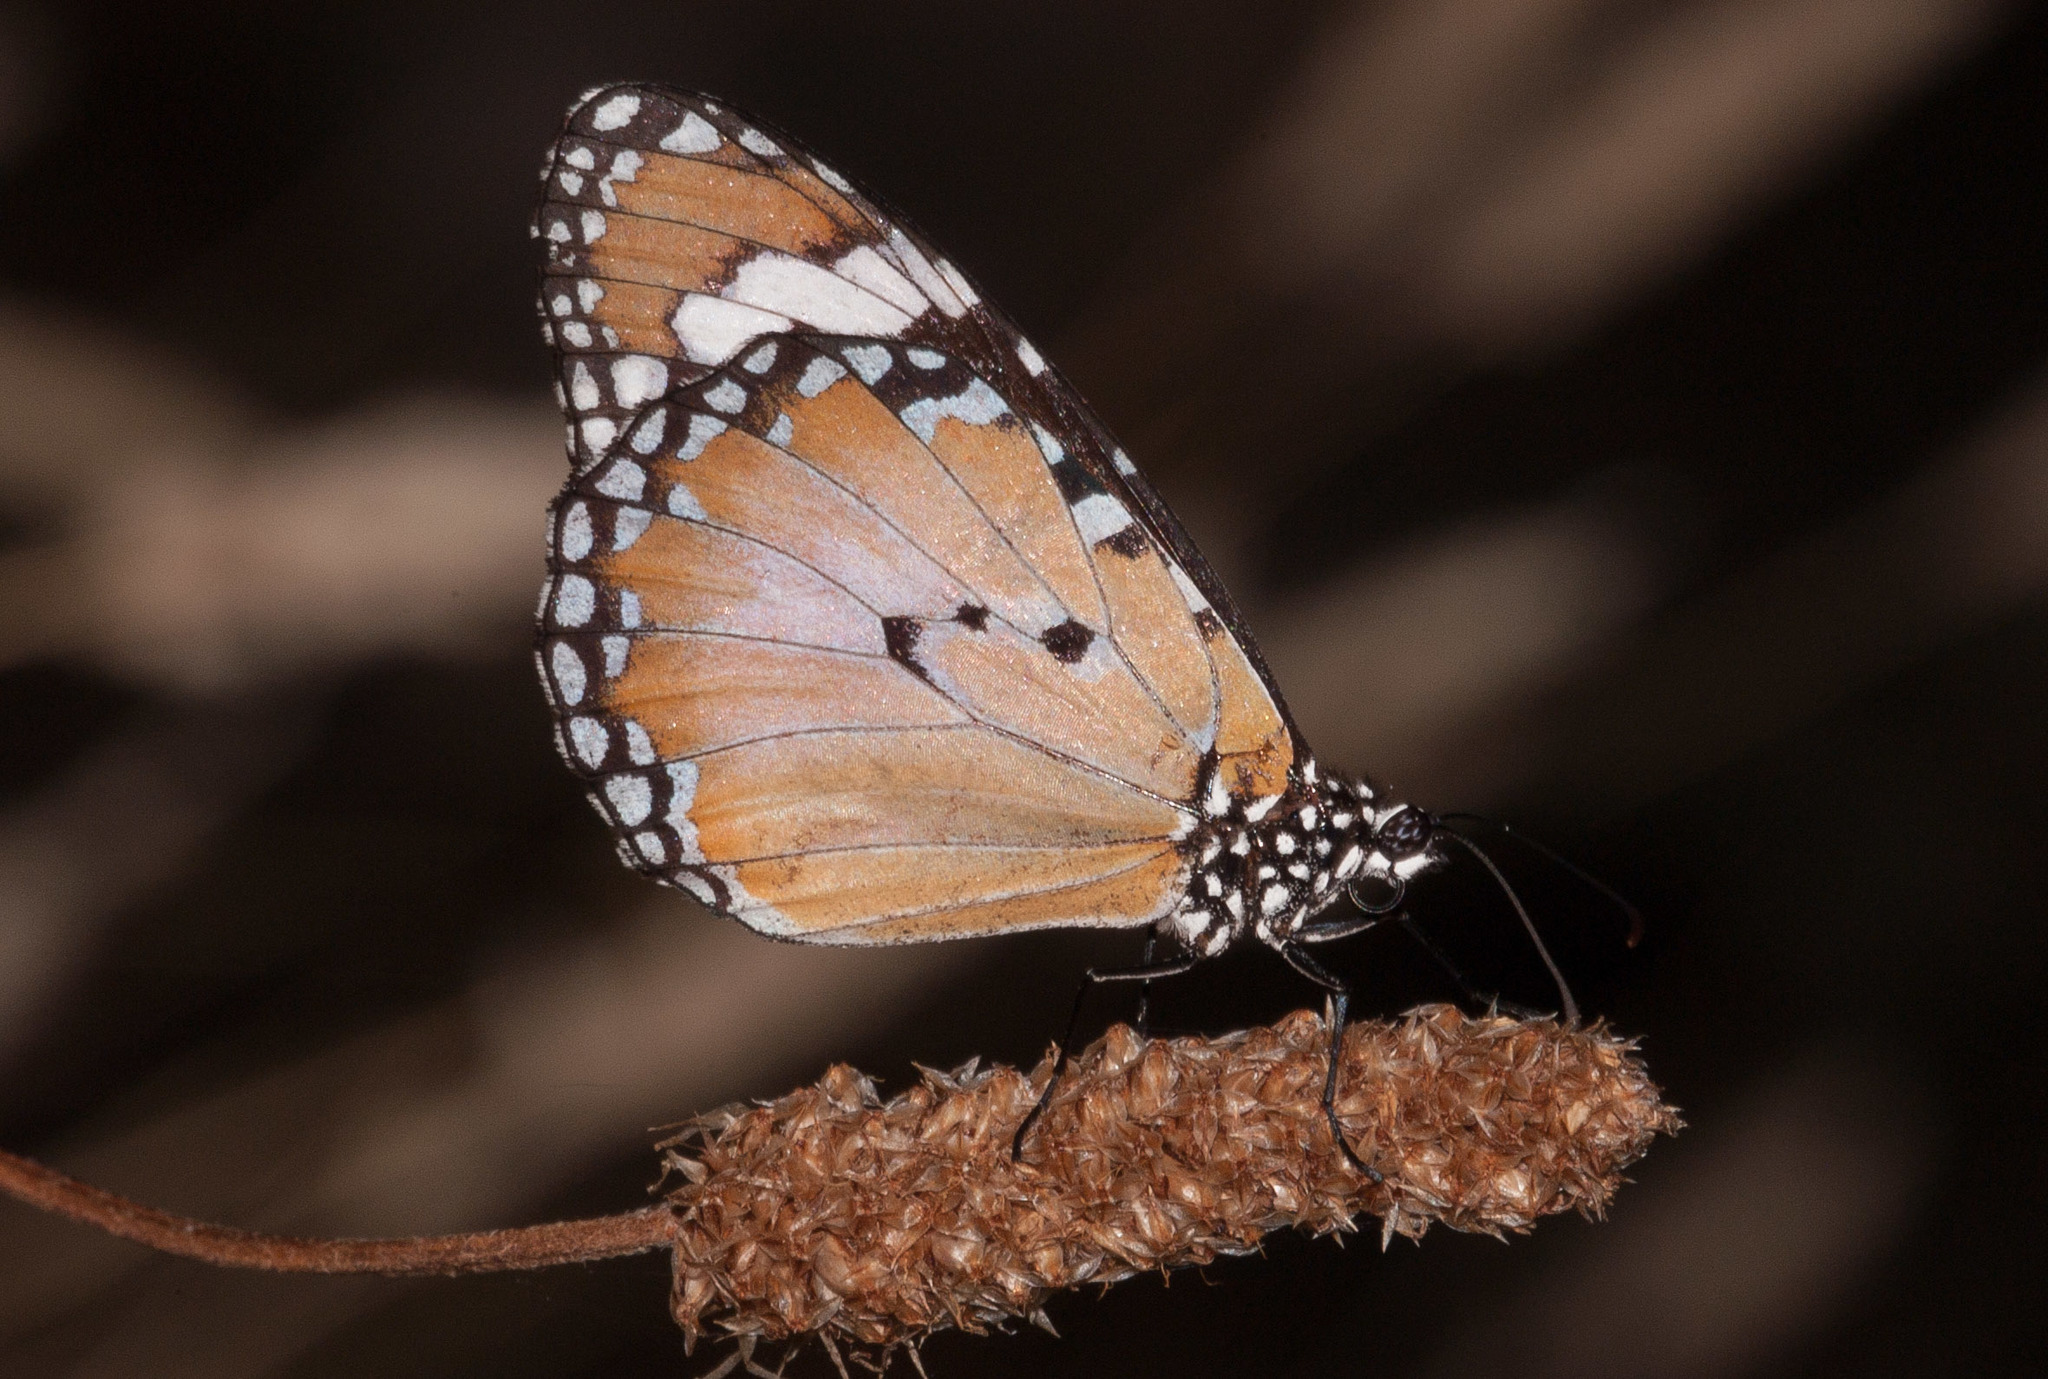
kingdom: Animalia
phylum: Arthropoda
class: Insecta
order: Lepidoptera
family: Nymphalidae
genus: Danaus
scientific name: Danaus chrysippus
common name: Plain tiger
